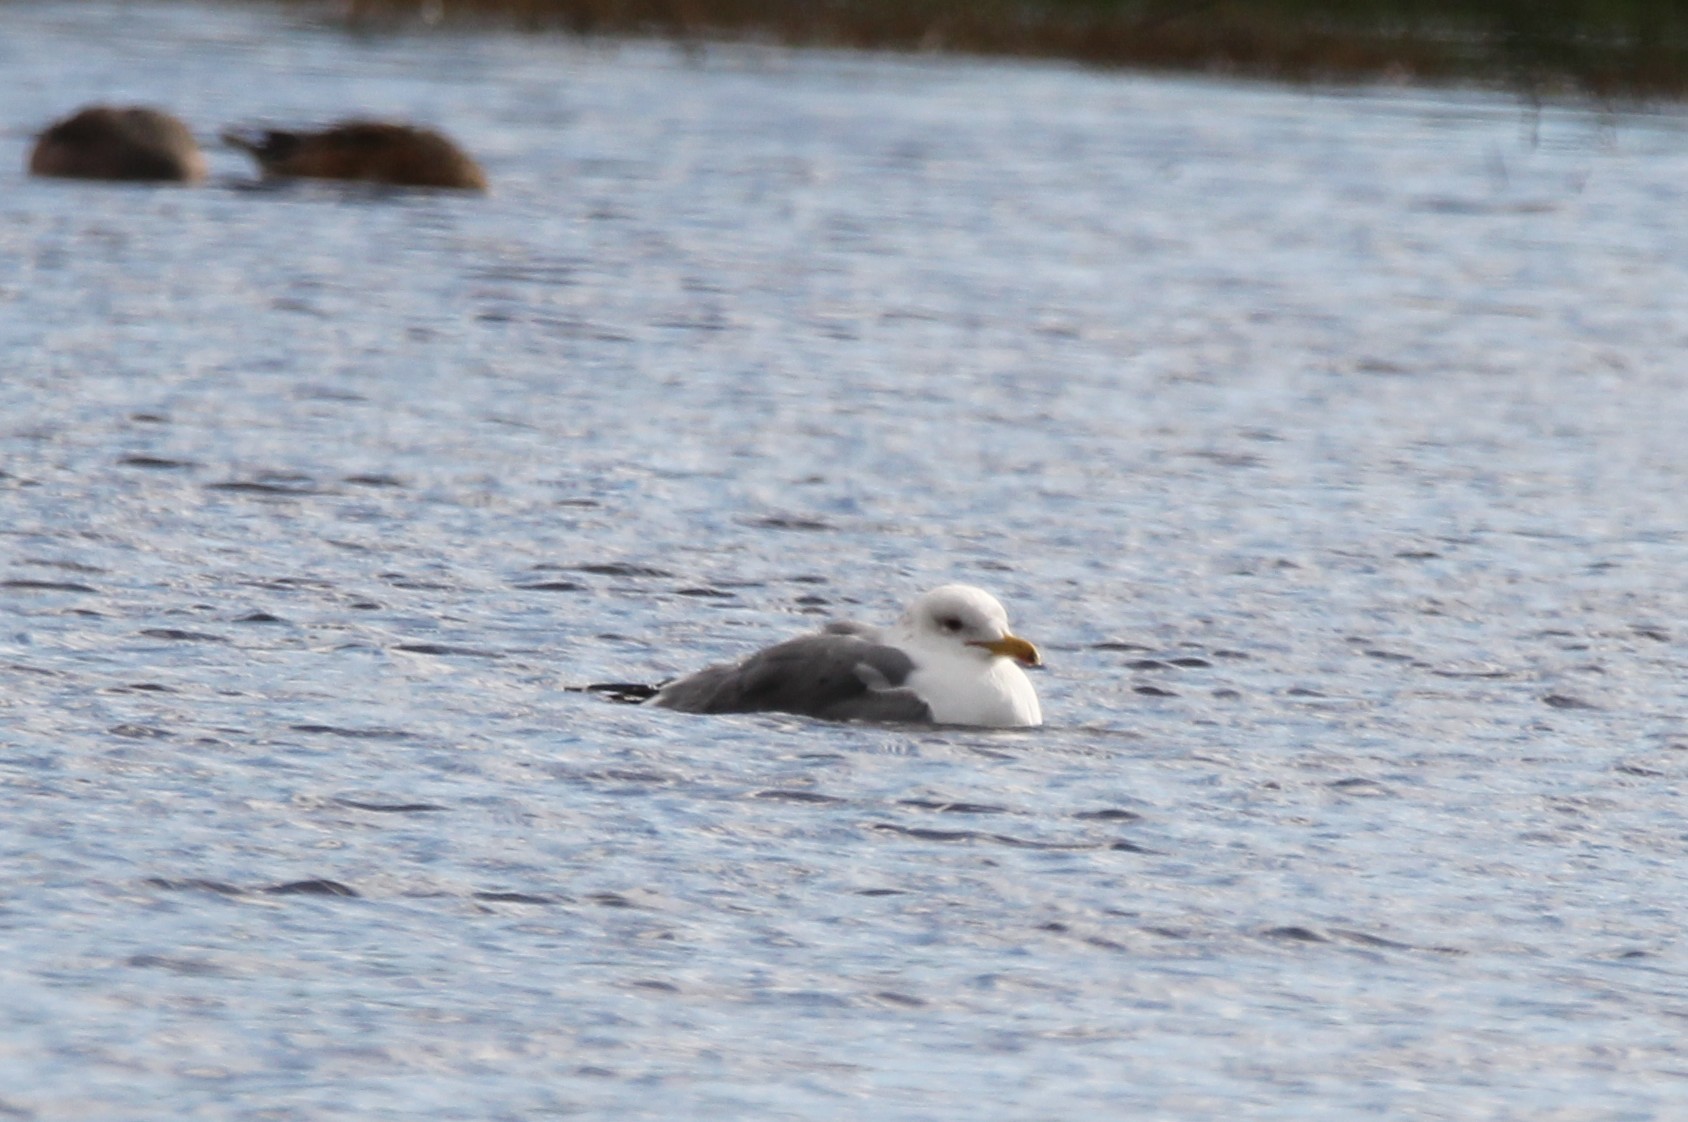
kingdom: Animalia
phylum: Chordata
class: Aves
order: Charadriiformes
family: Laridae
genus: Larus
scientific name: Larus californicus
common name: California gull
